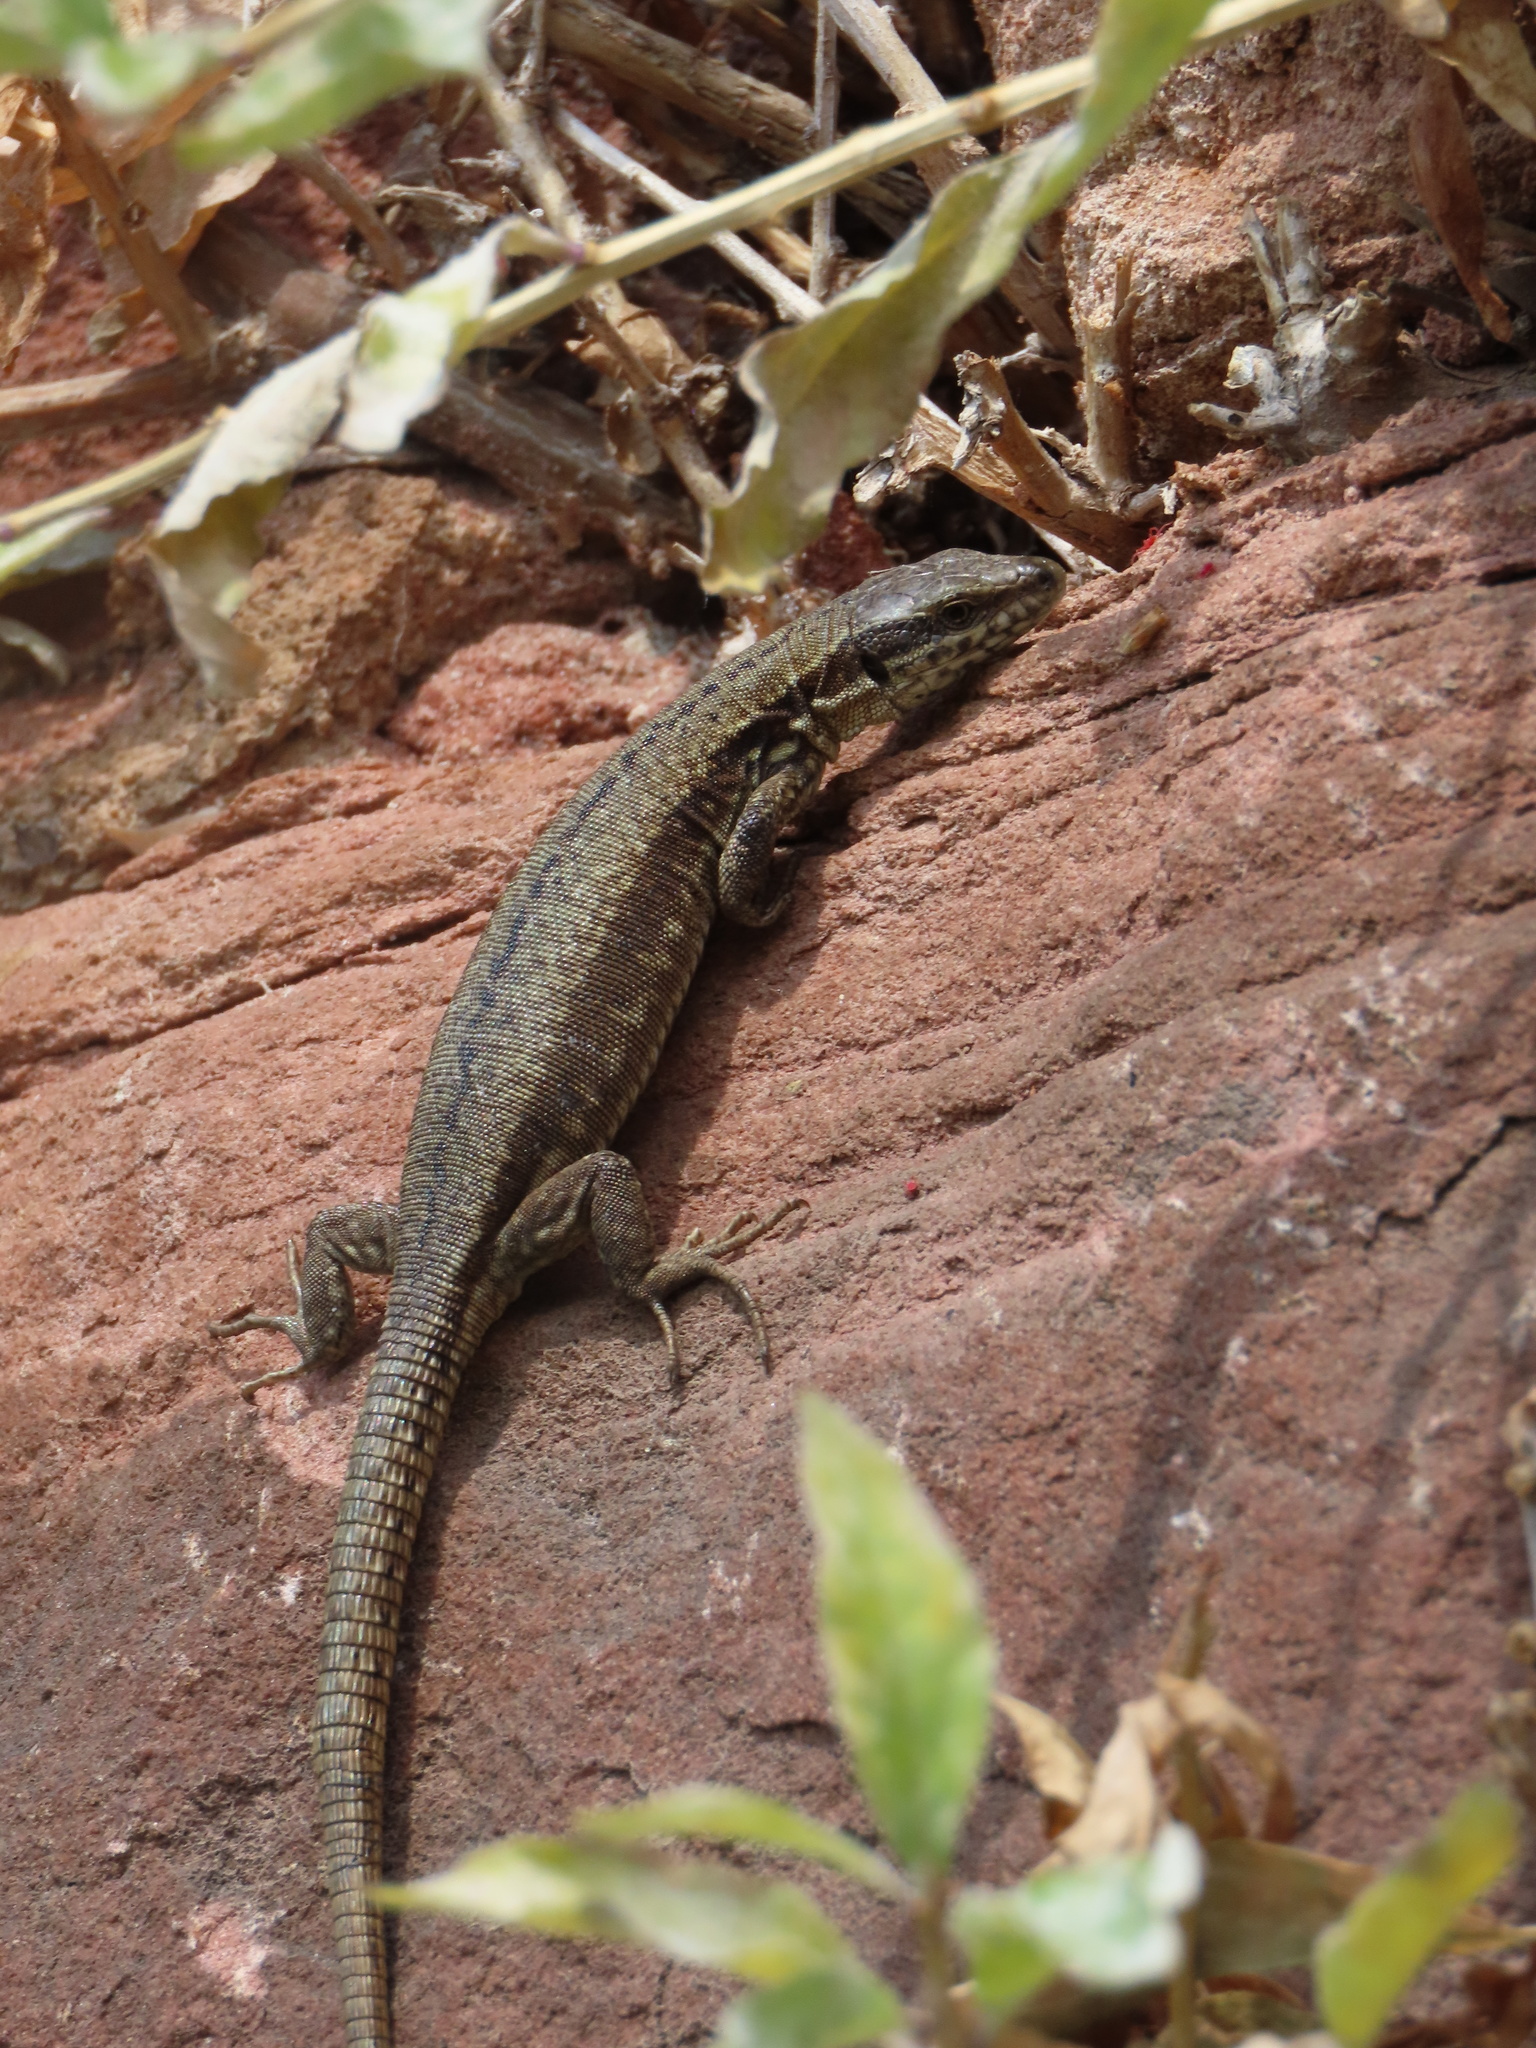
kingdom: Animalia
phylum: Chordata
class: Squamata
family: Lacertidae
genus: Podarcis
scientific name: Podarcis muralis
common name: Common wall lizard
